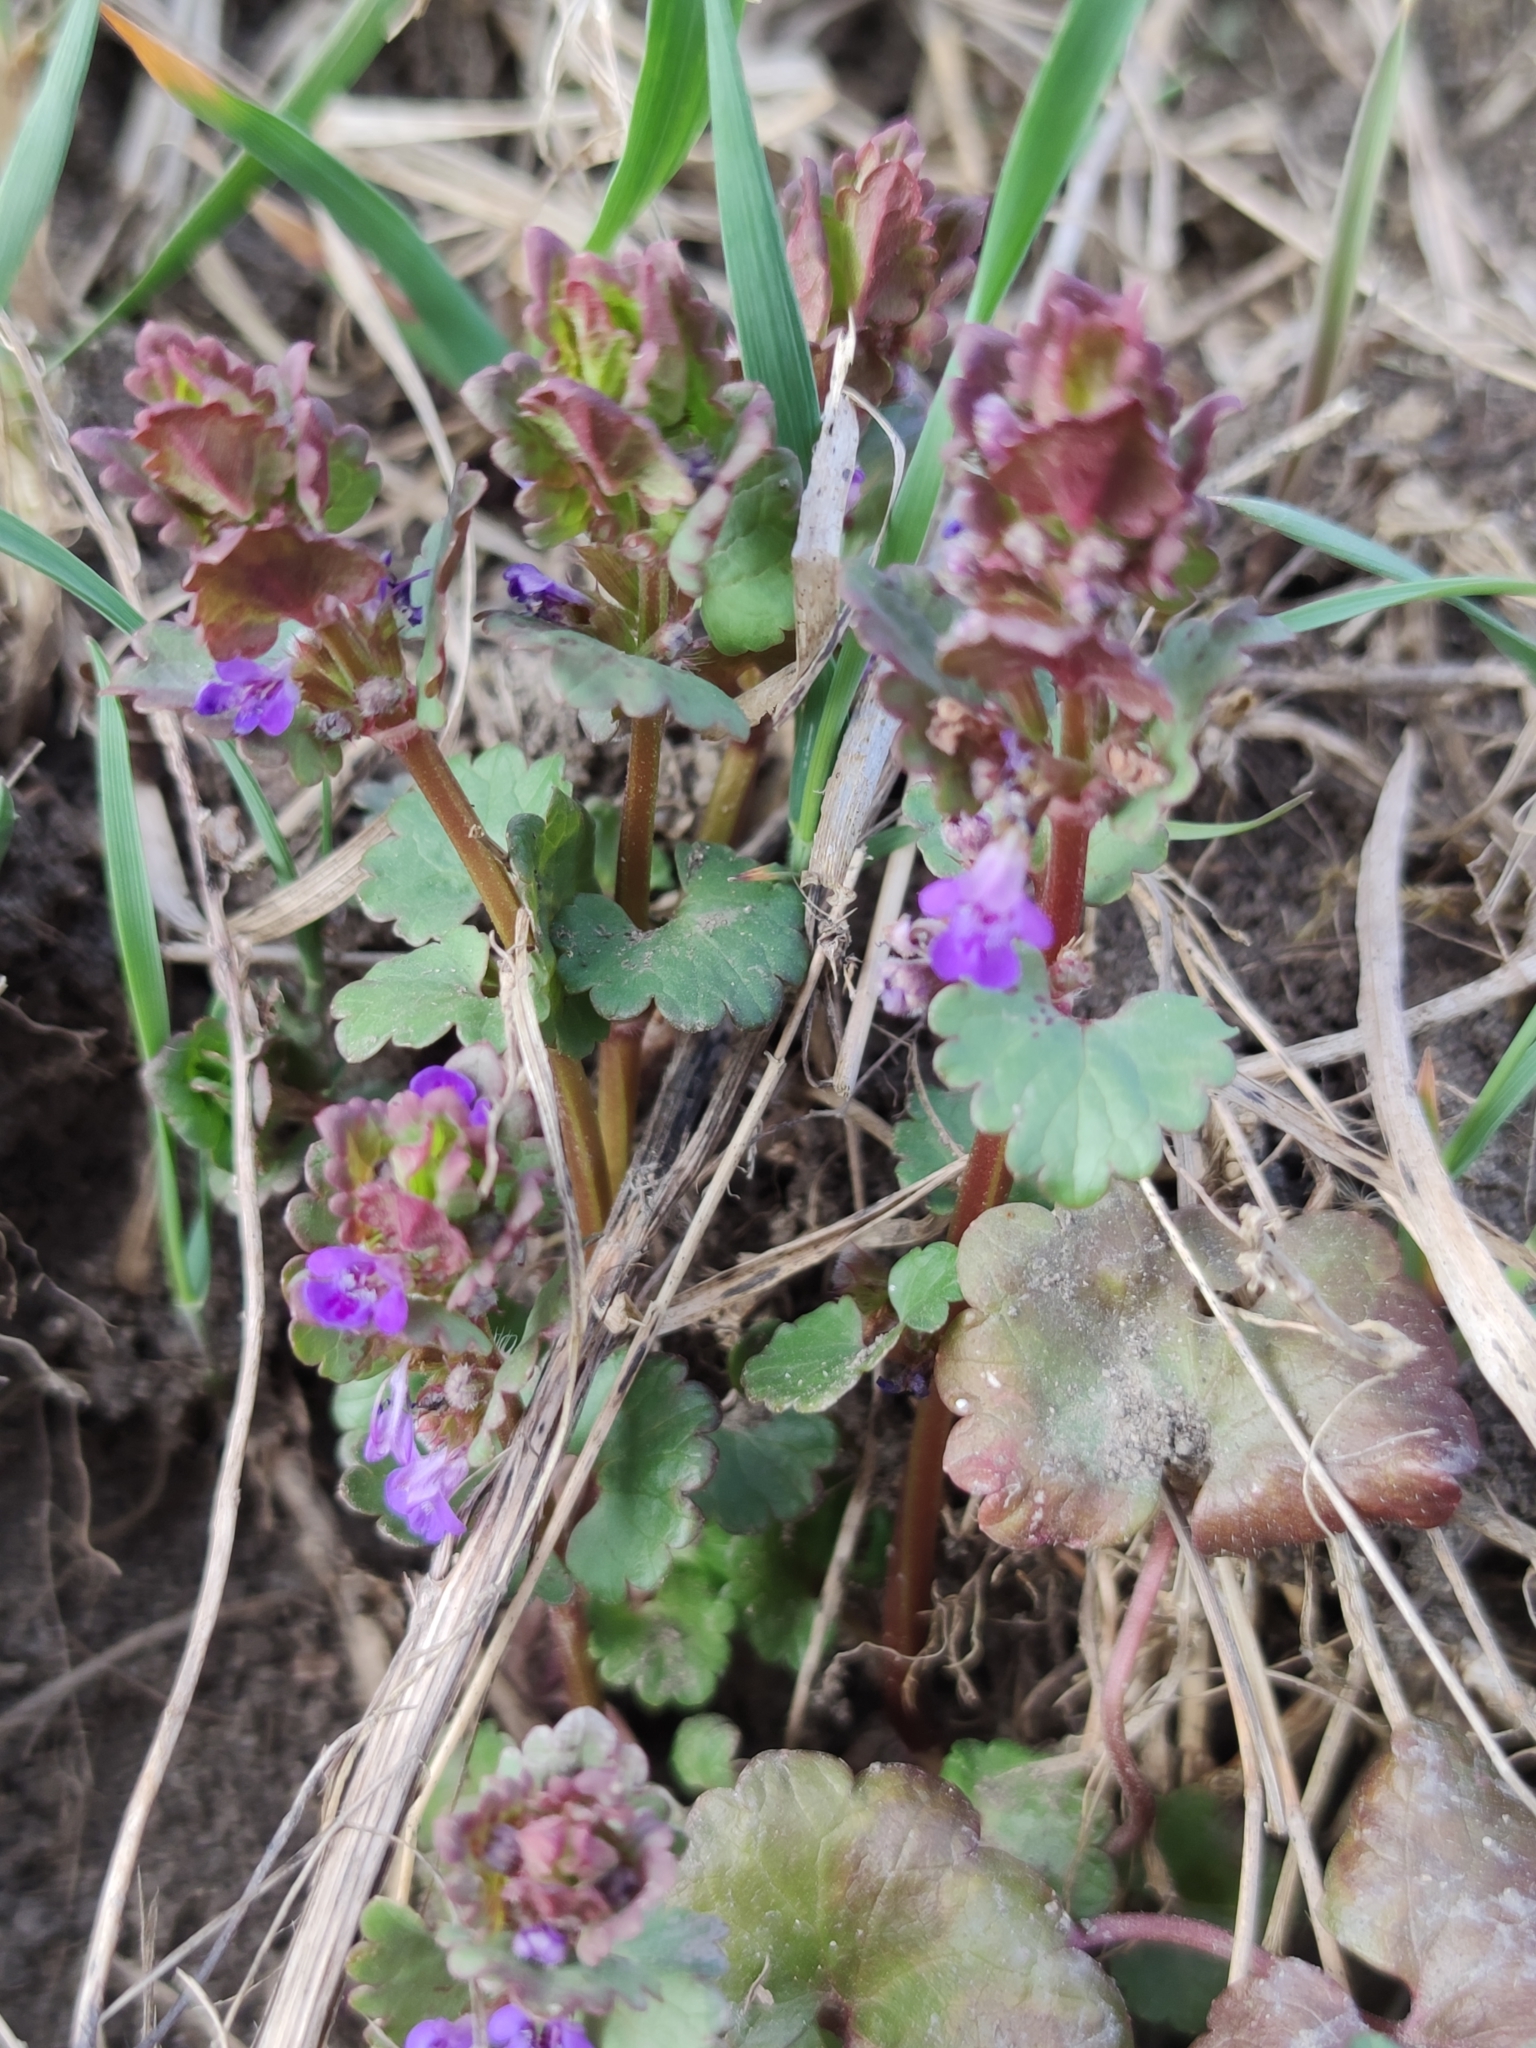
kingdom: Plantae
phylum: Tracheophyta
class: Magnoliopsida
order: Lamiales
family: Lamiaceae
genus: Glechoma
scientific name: Glechoma hederacea
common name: Ground ivy
